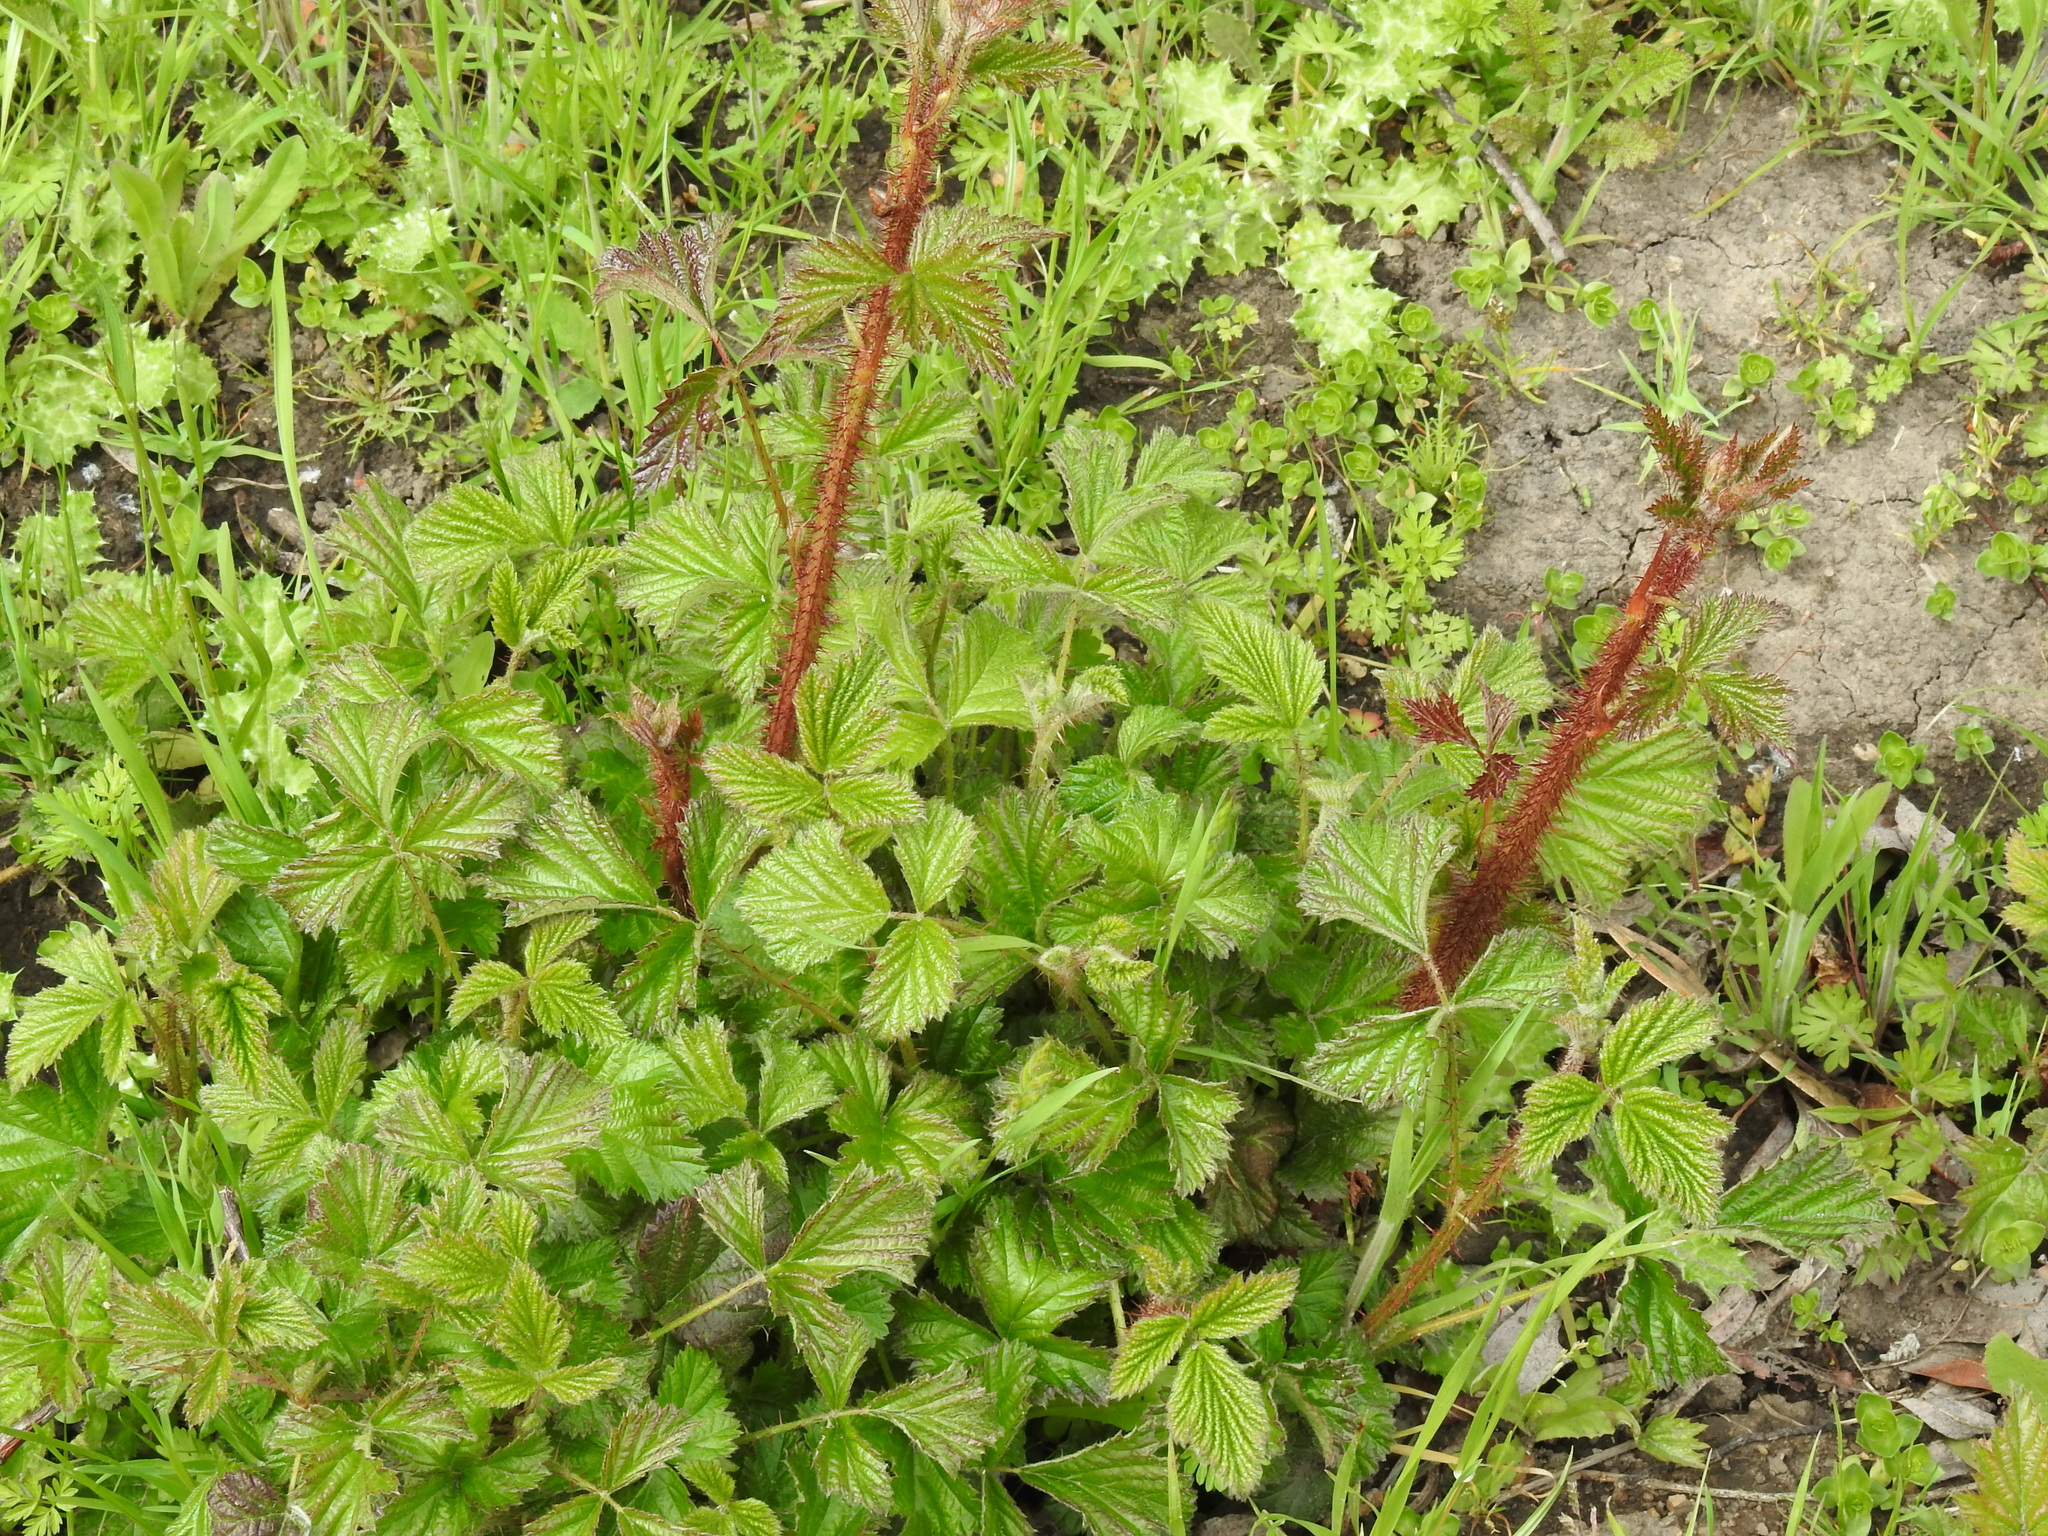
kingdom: Plantae
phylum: Tracheophyta
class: Magnoliopsida
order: Rosales
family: Rosaceae
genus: Rubus
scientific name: Rubus ursinus
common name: Pacific blackberry
